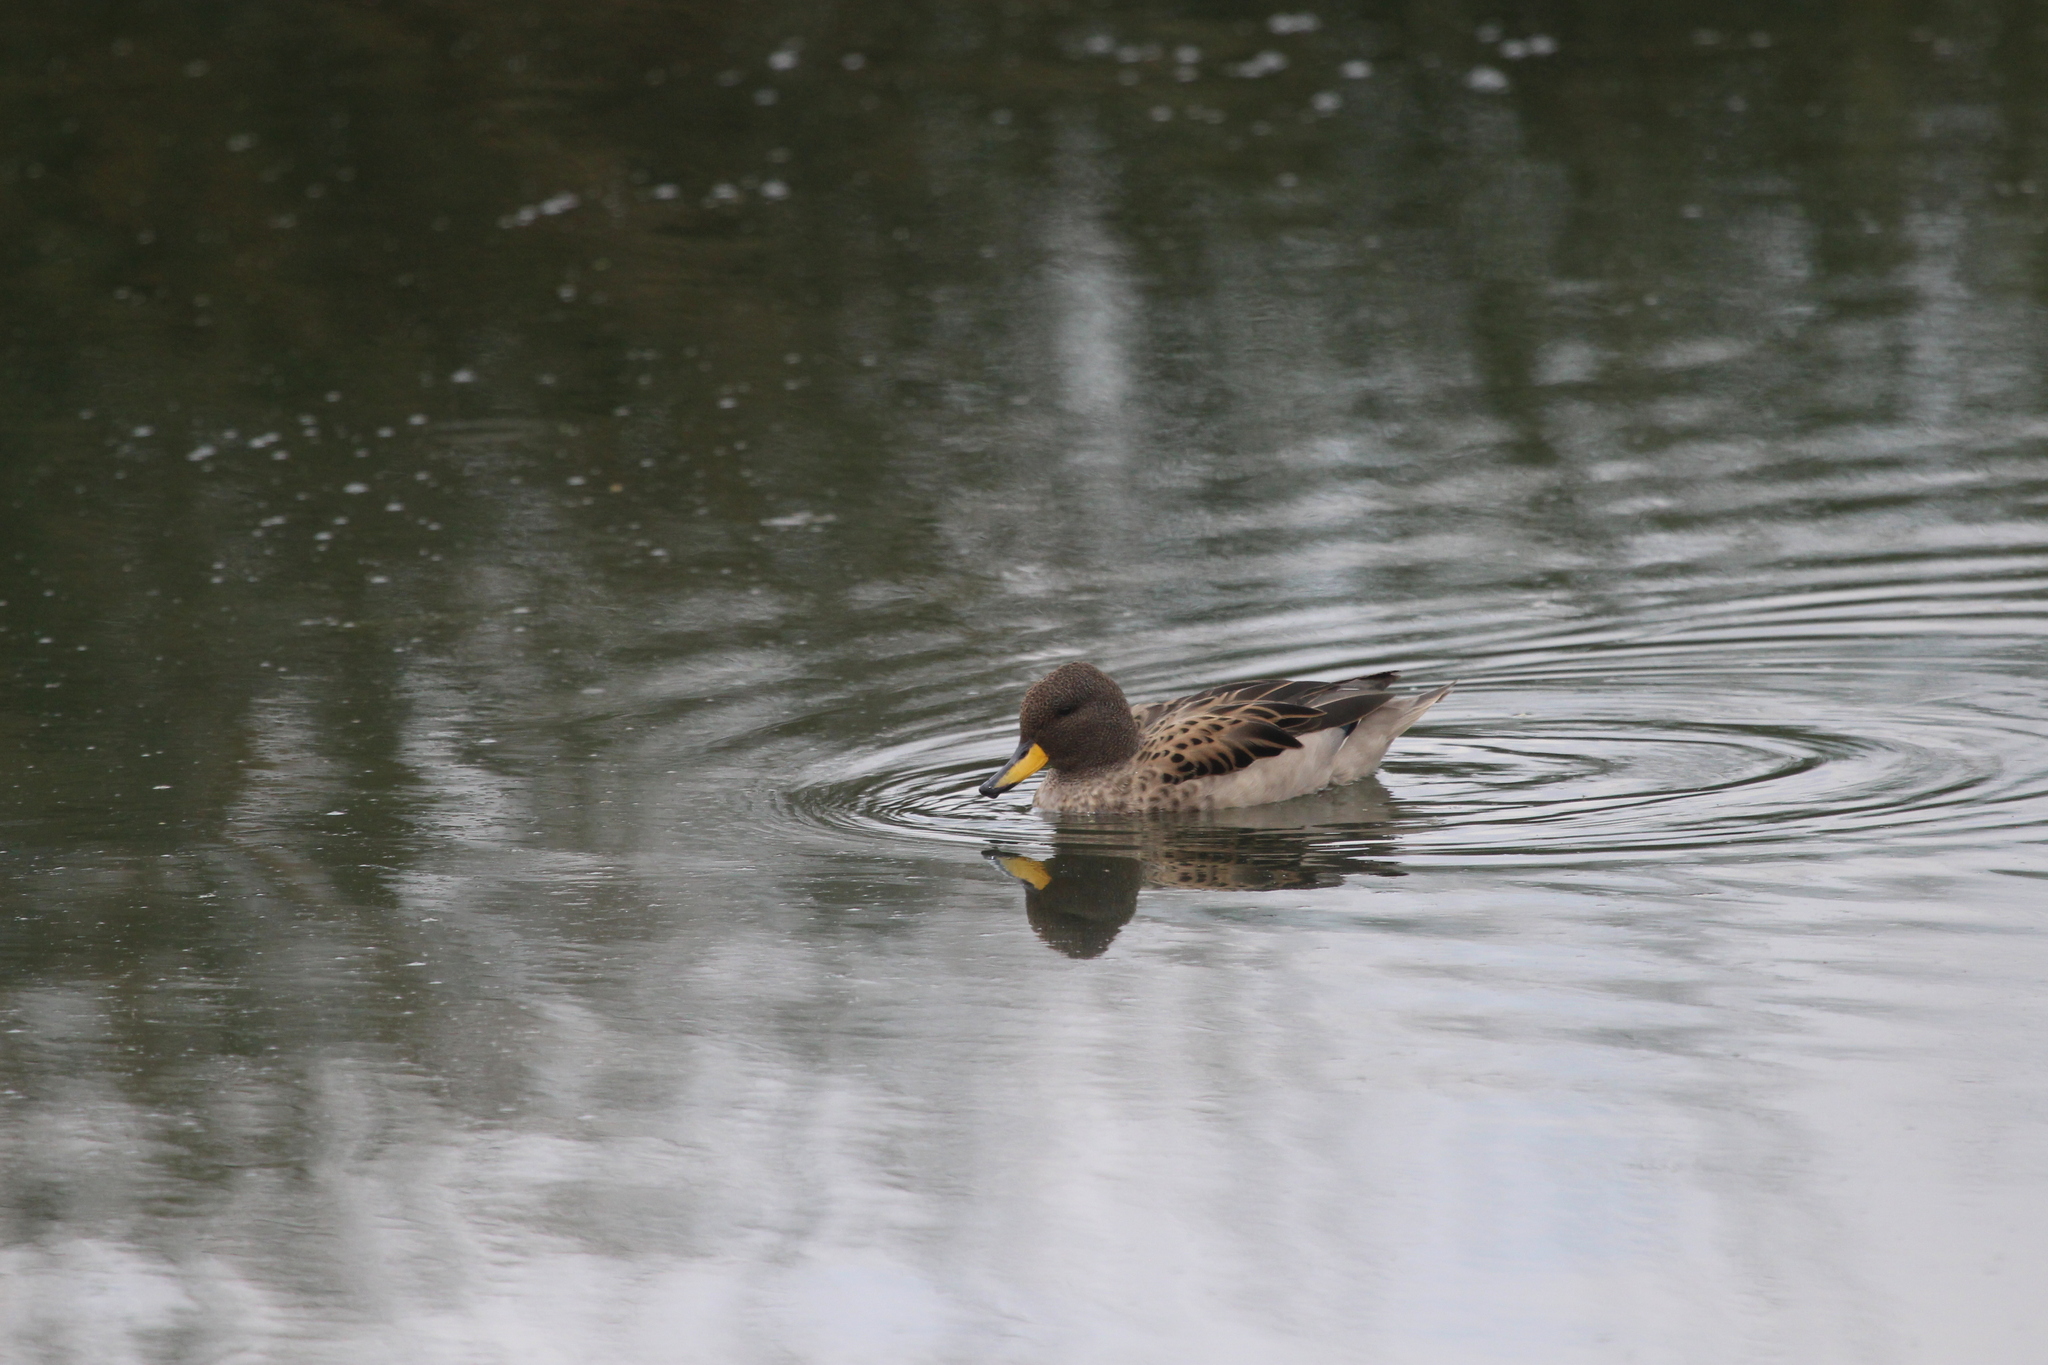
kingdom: Animalia
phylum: Chordata
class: Aves
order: Anseriformes
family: Anatidae
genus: Anas
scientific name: Anas flavirostris
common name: Yellow-billed teal
